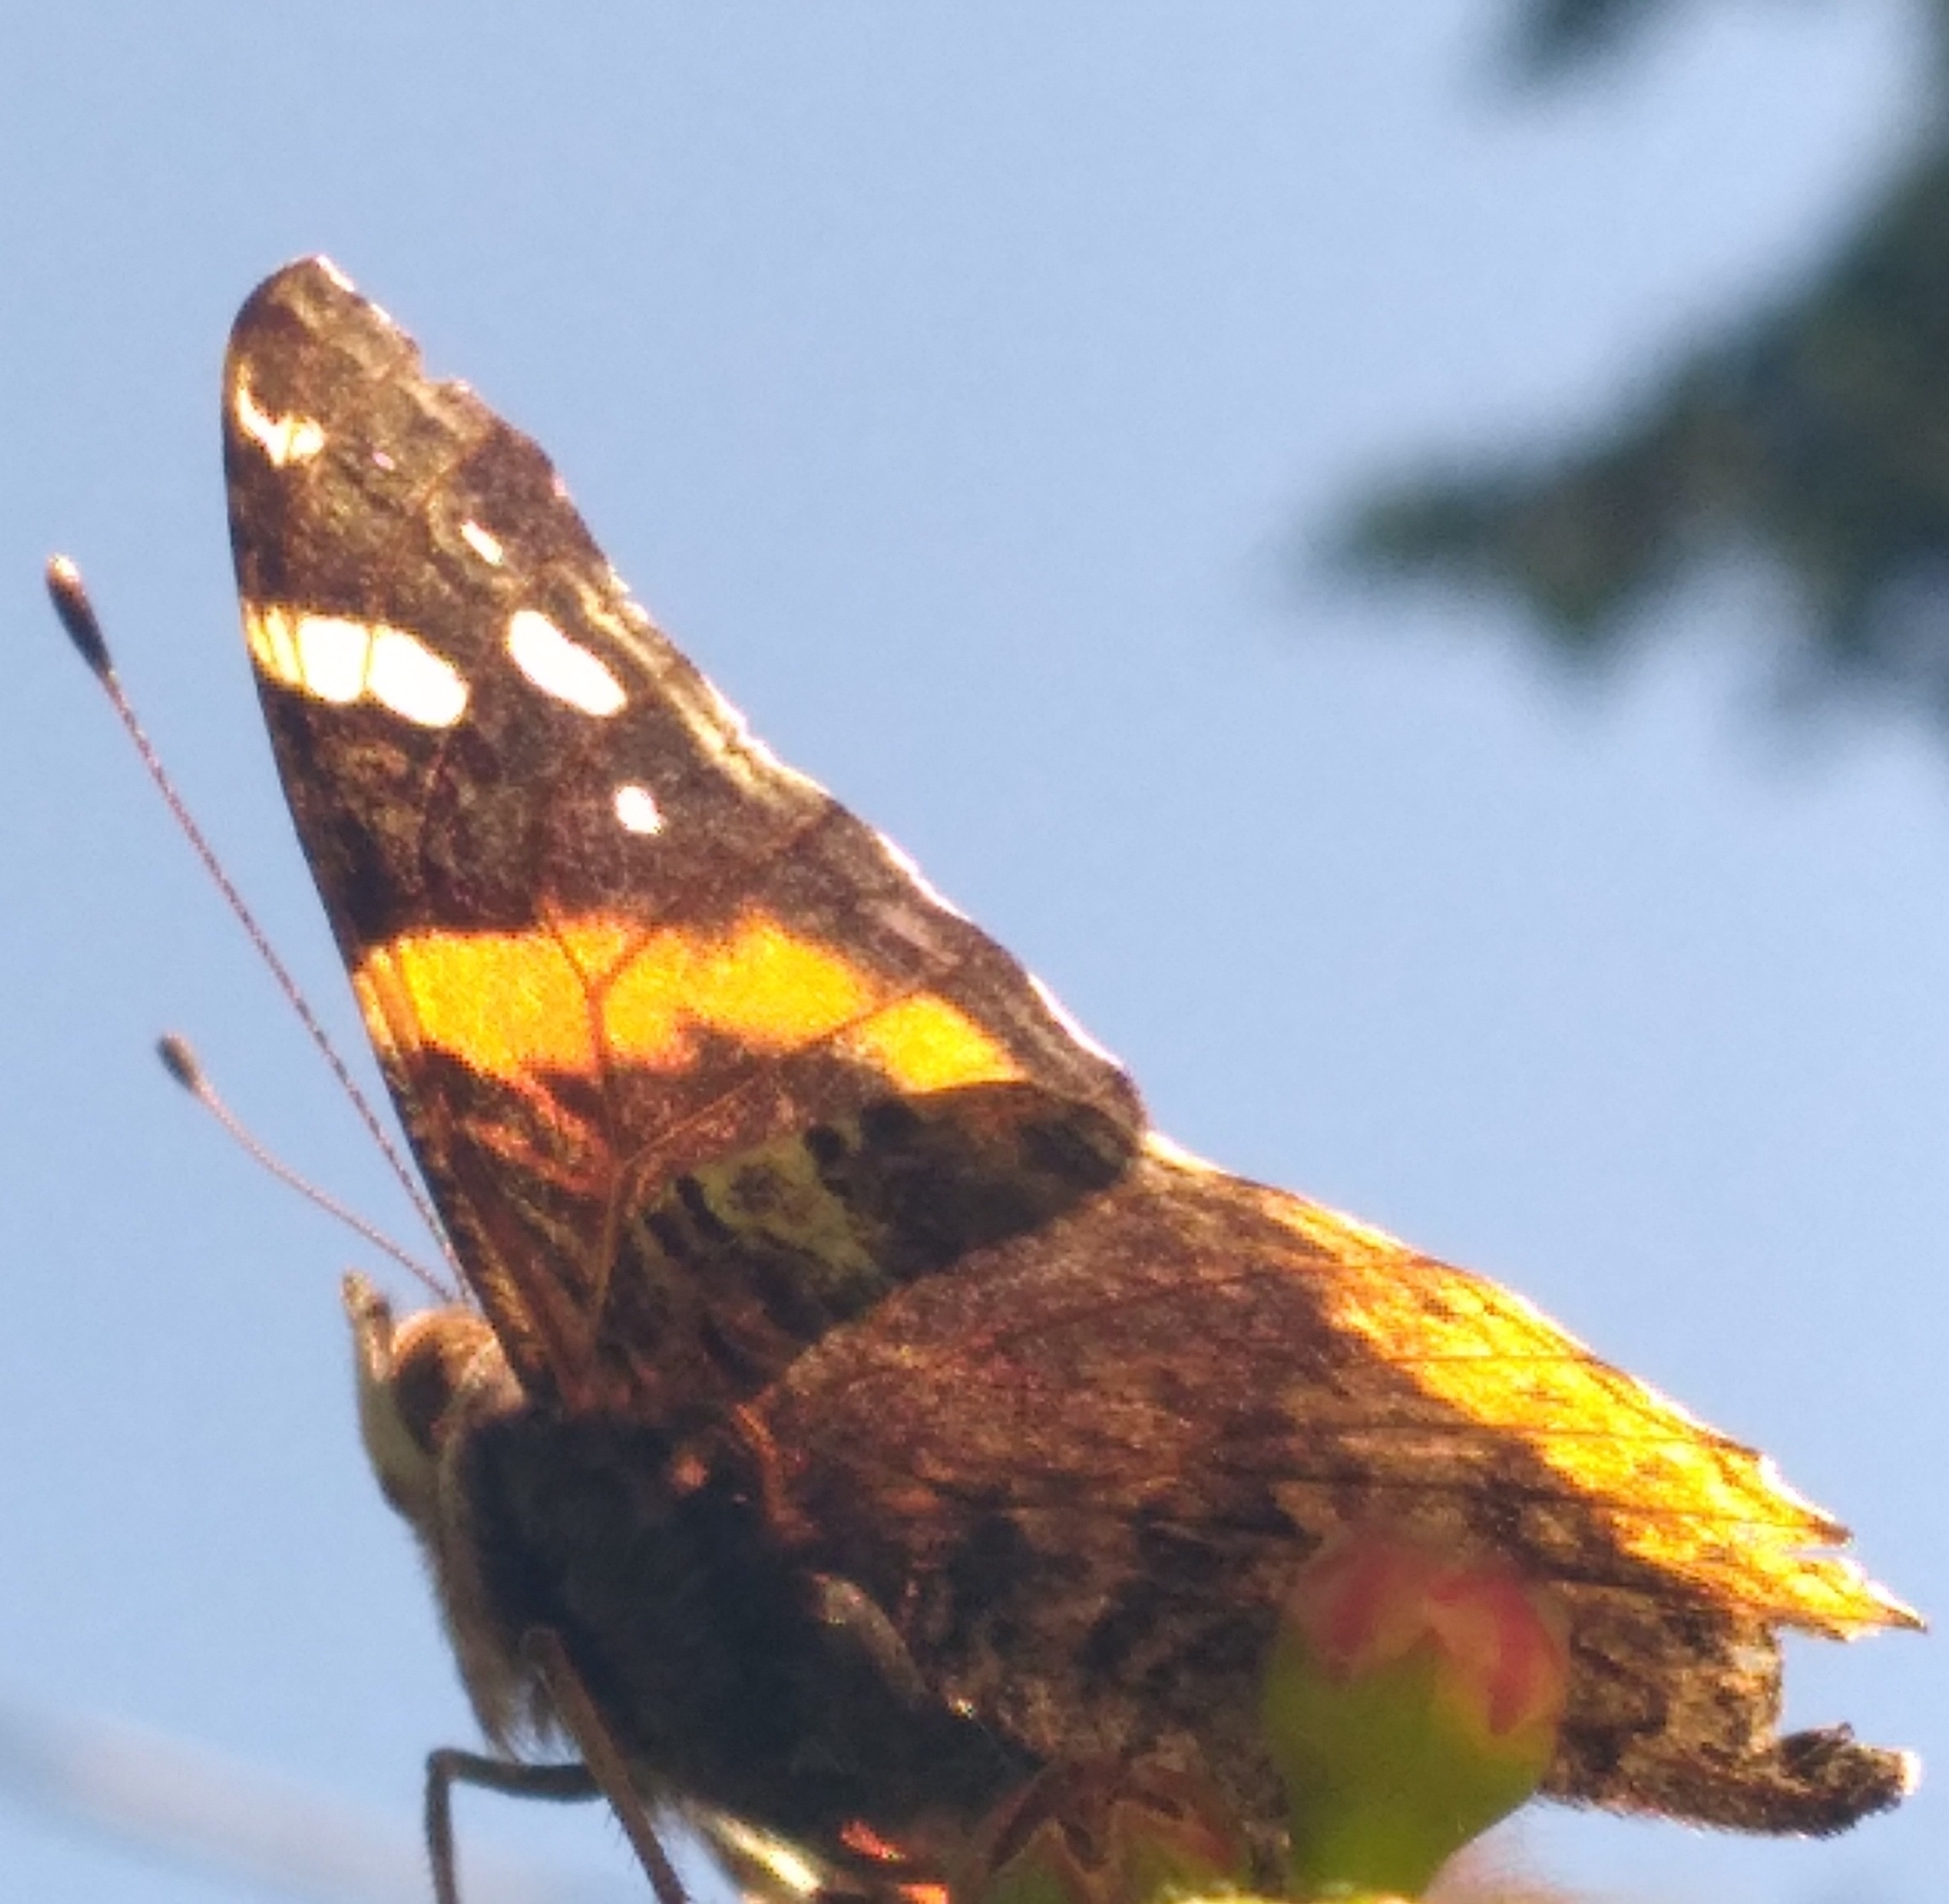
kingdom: Animalia
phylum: Arthropoda
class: Insecta
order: Lepidoptera
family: Nymphalidae
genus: Vanessa
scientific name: Vanessa atalanta
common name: Red admiral
